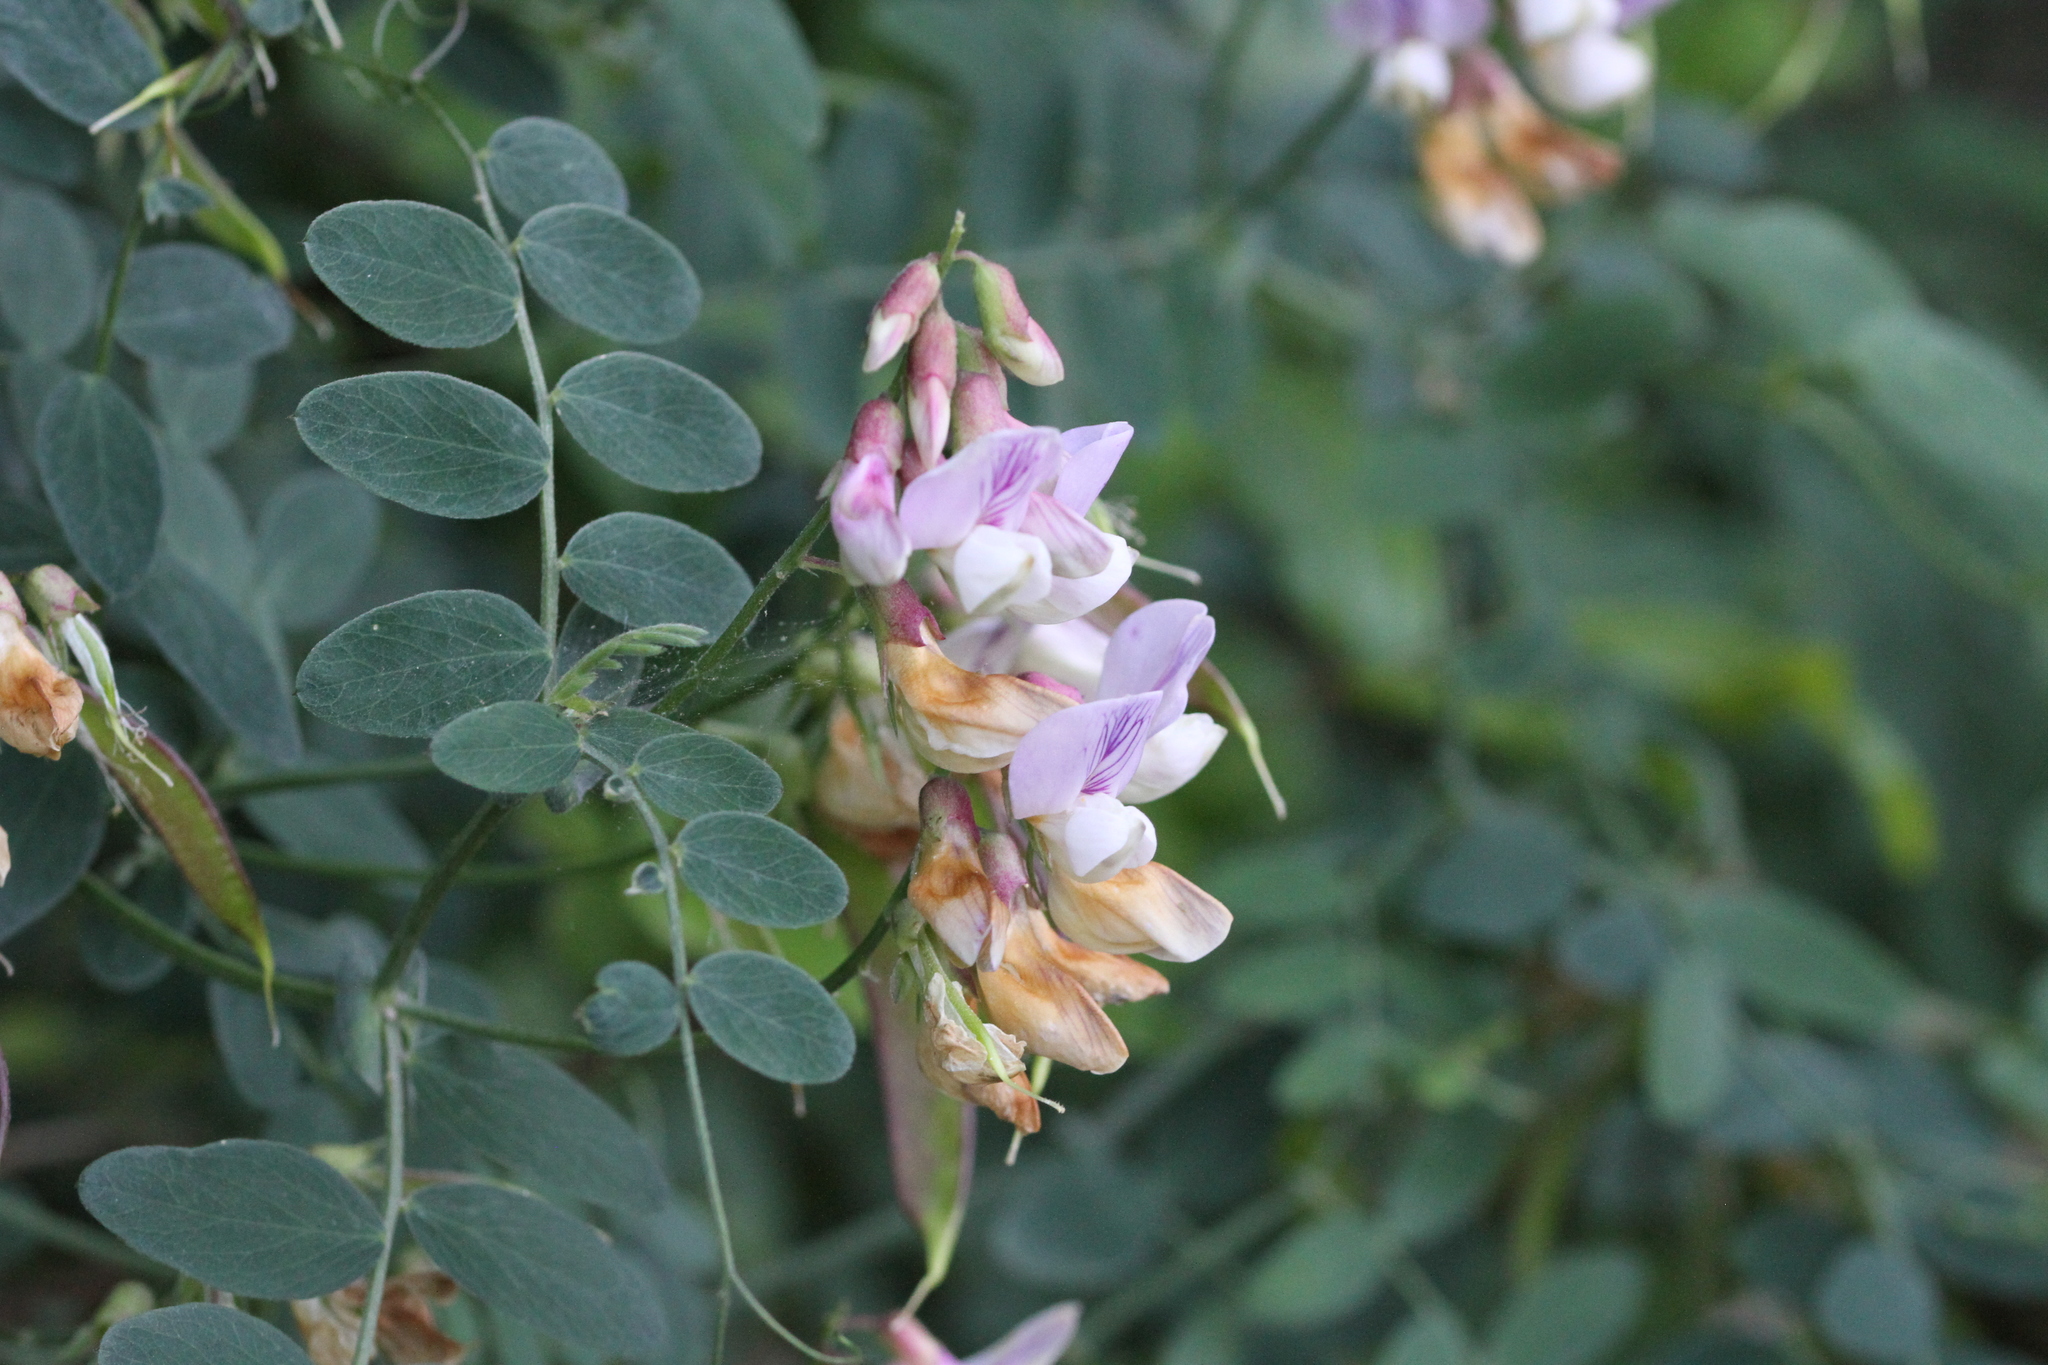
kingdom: Plantae
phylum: Tracheophyta
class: Magnoliopsida
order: Fabales
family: Fabaceae
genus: Lathyrus
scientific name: Lathyrus vestitus
